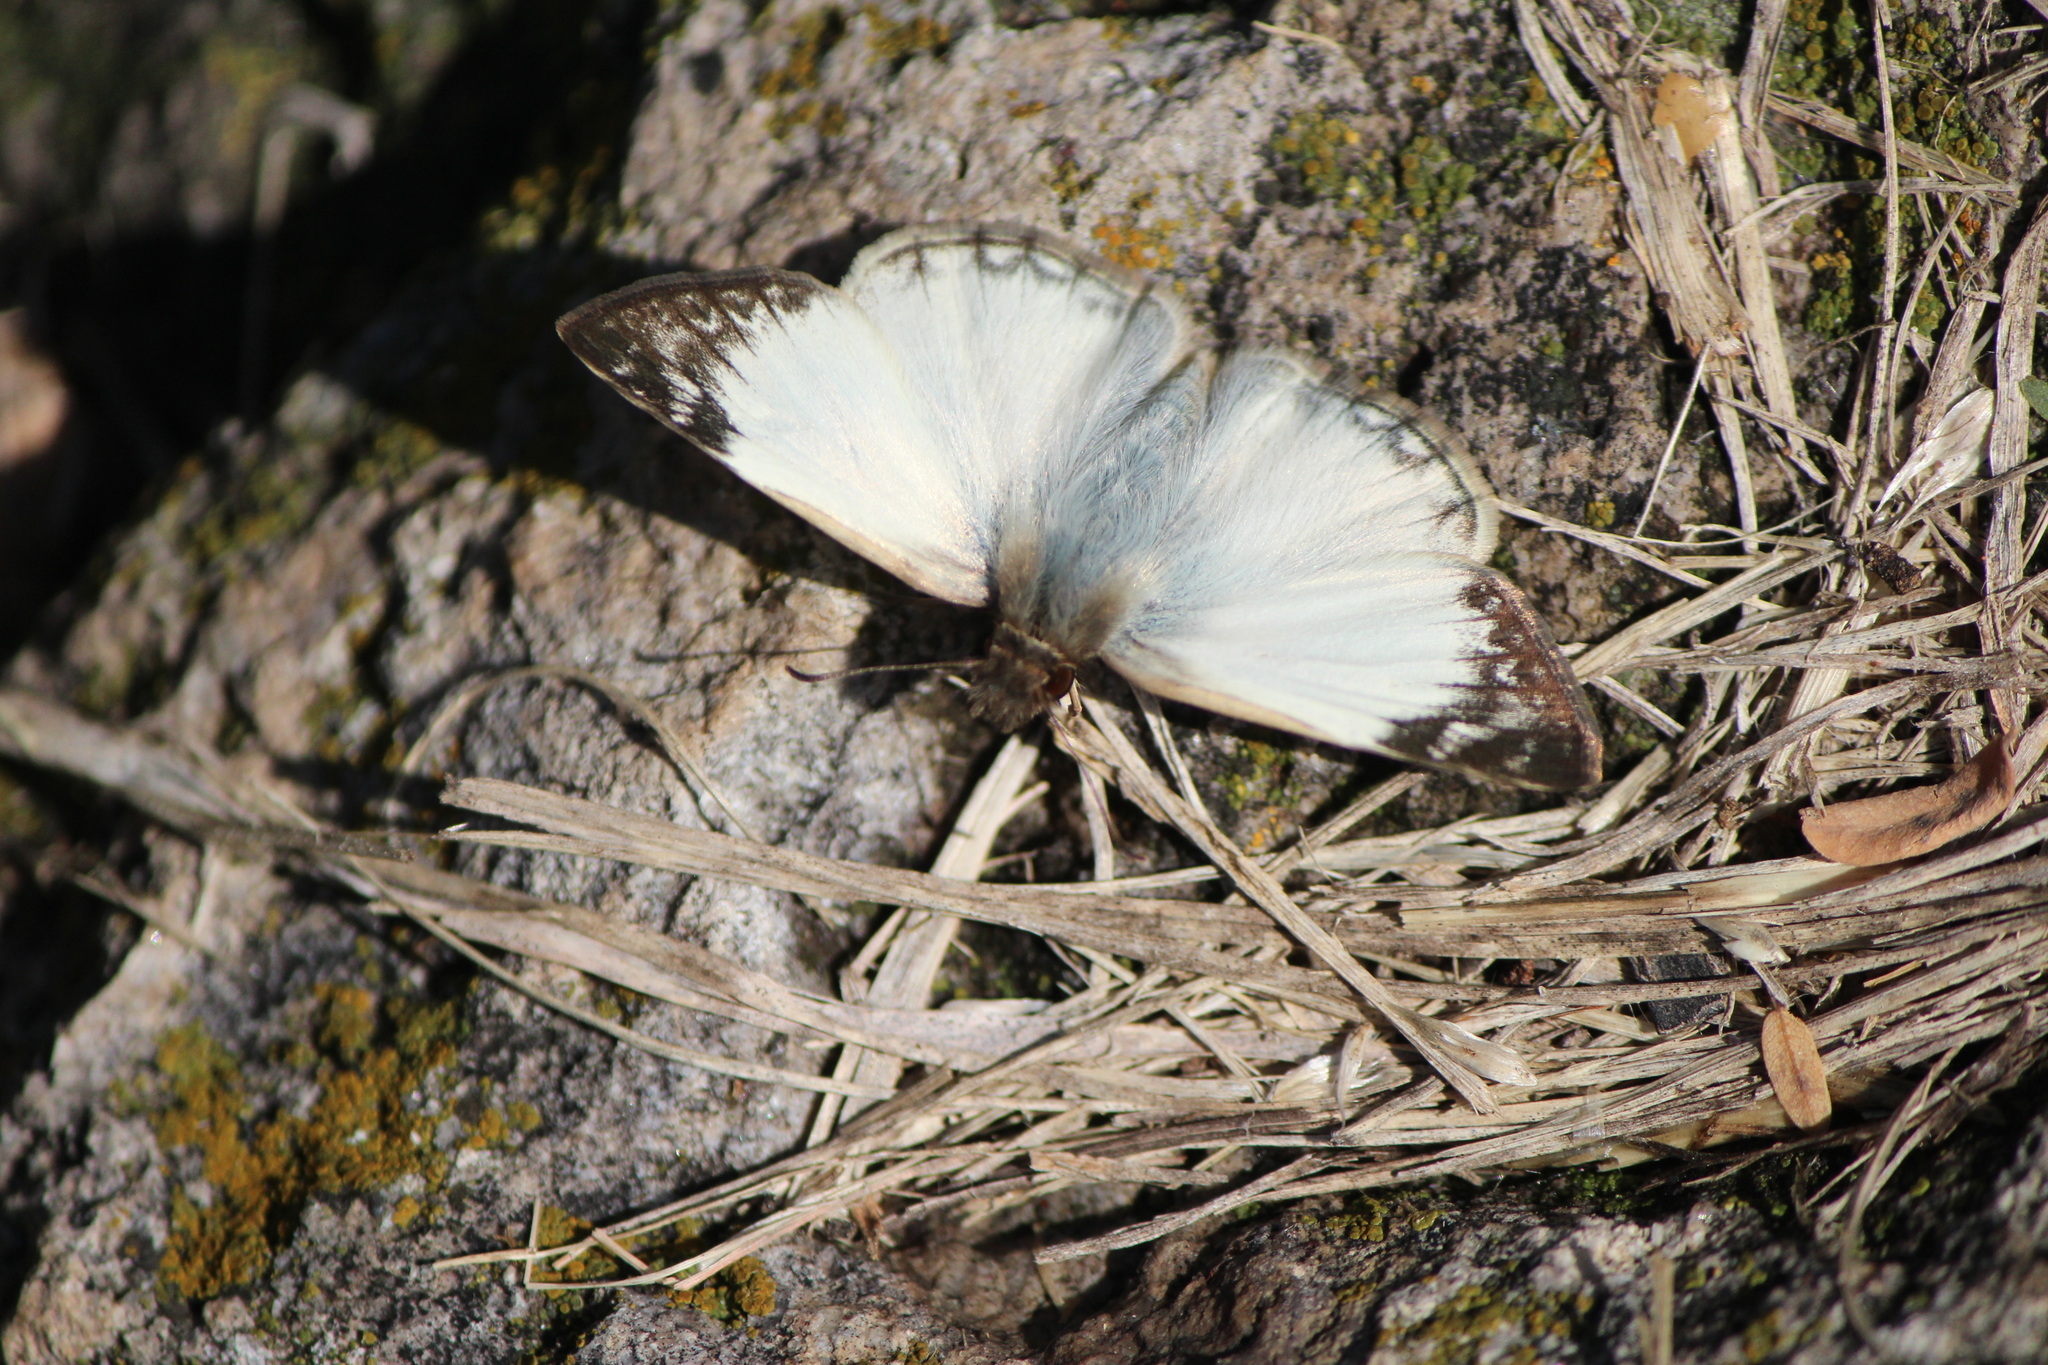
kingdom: Animalia
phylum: Arthropoda
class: Insecta
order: Lepidoptera
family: Hesperiidae
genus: Heliopetes
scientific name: Heliopetes laviana
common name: Laviana white-skipper
